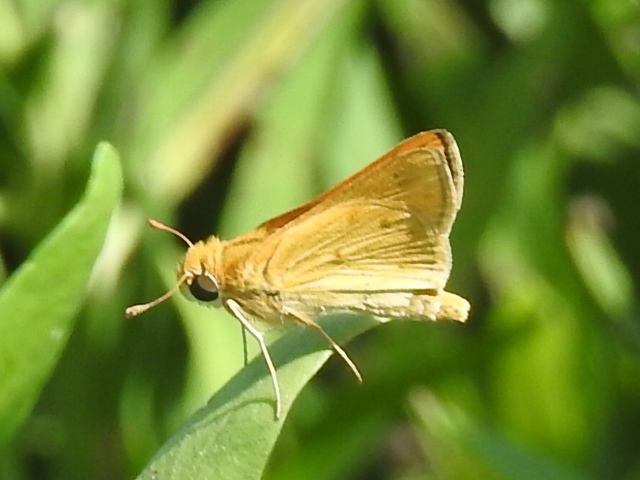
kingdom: Animalia
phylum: Arthropoda
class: Insecta
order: Lepidoptera
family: Hesperiidae
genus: Hylephila
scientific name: Hylephila phyleus
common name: Fiery skipper
